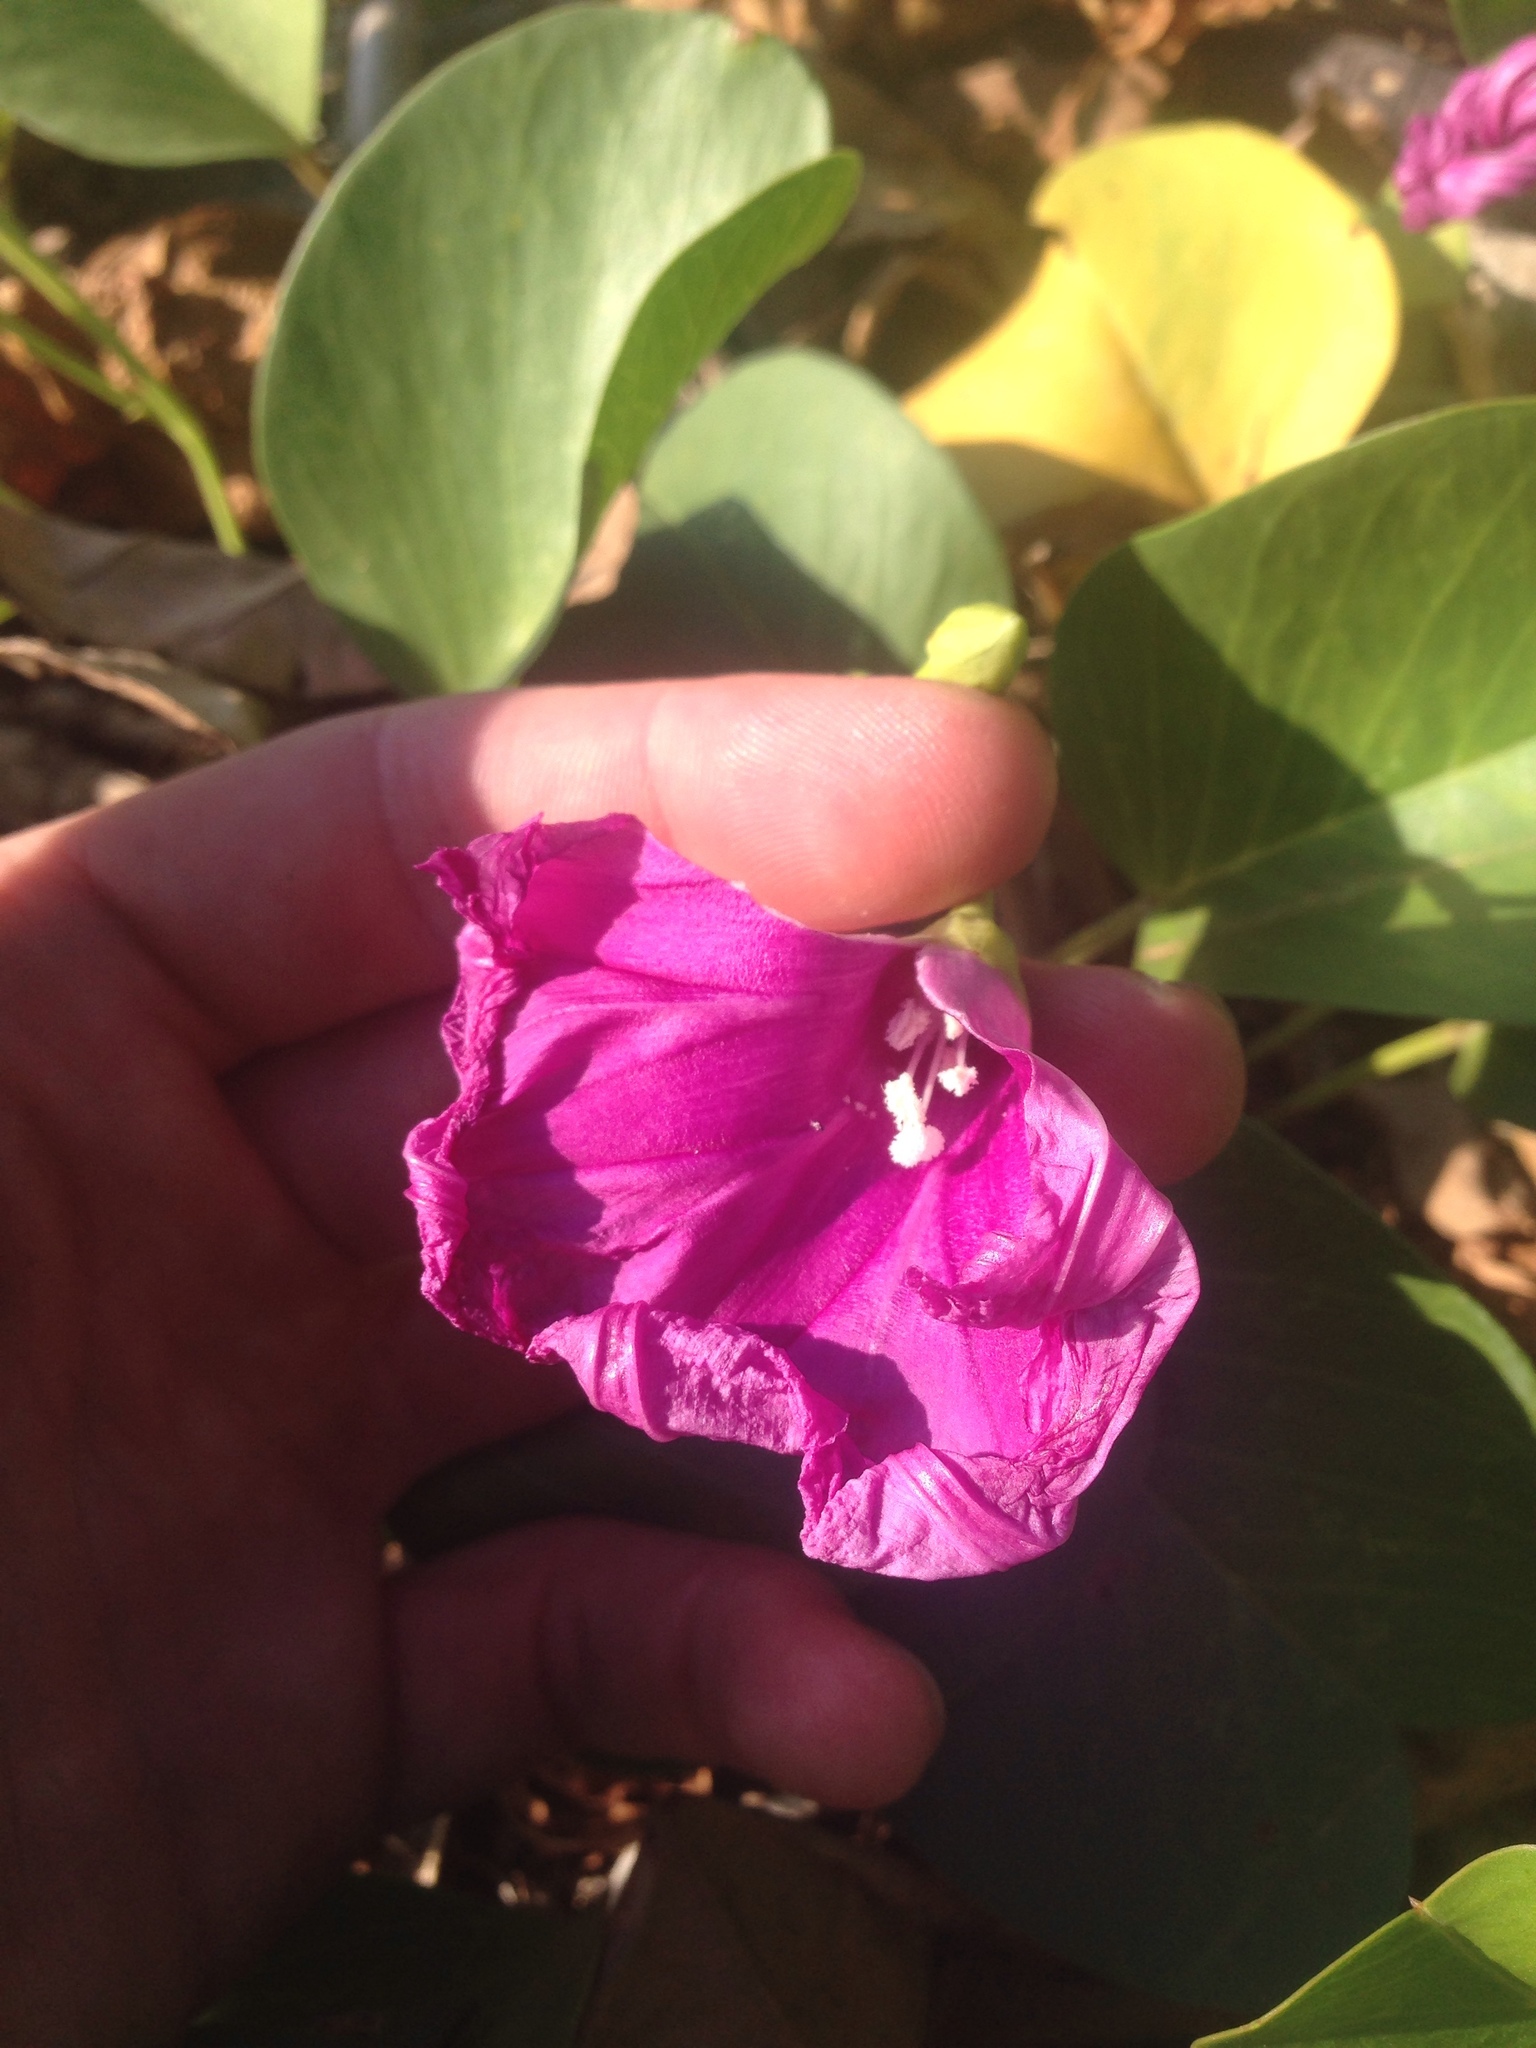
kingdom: Plantae
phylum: Tracheophyta
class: Magnoliopsida
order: Solanales
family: Convolvulaceae
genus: Ipomoea
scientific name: Ipomoea pes-caprae
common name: Beach morning glory
